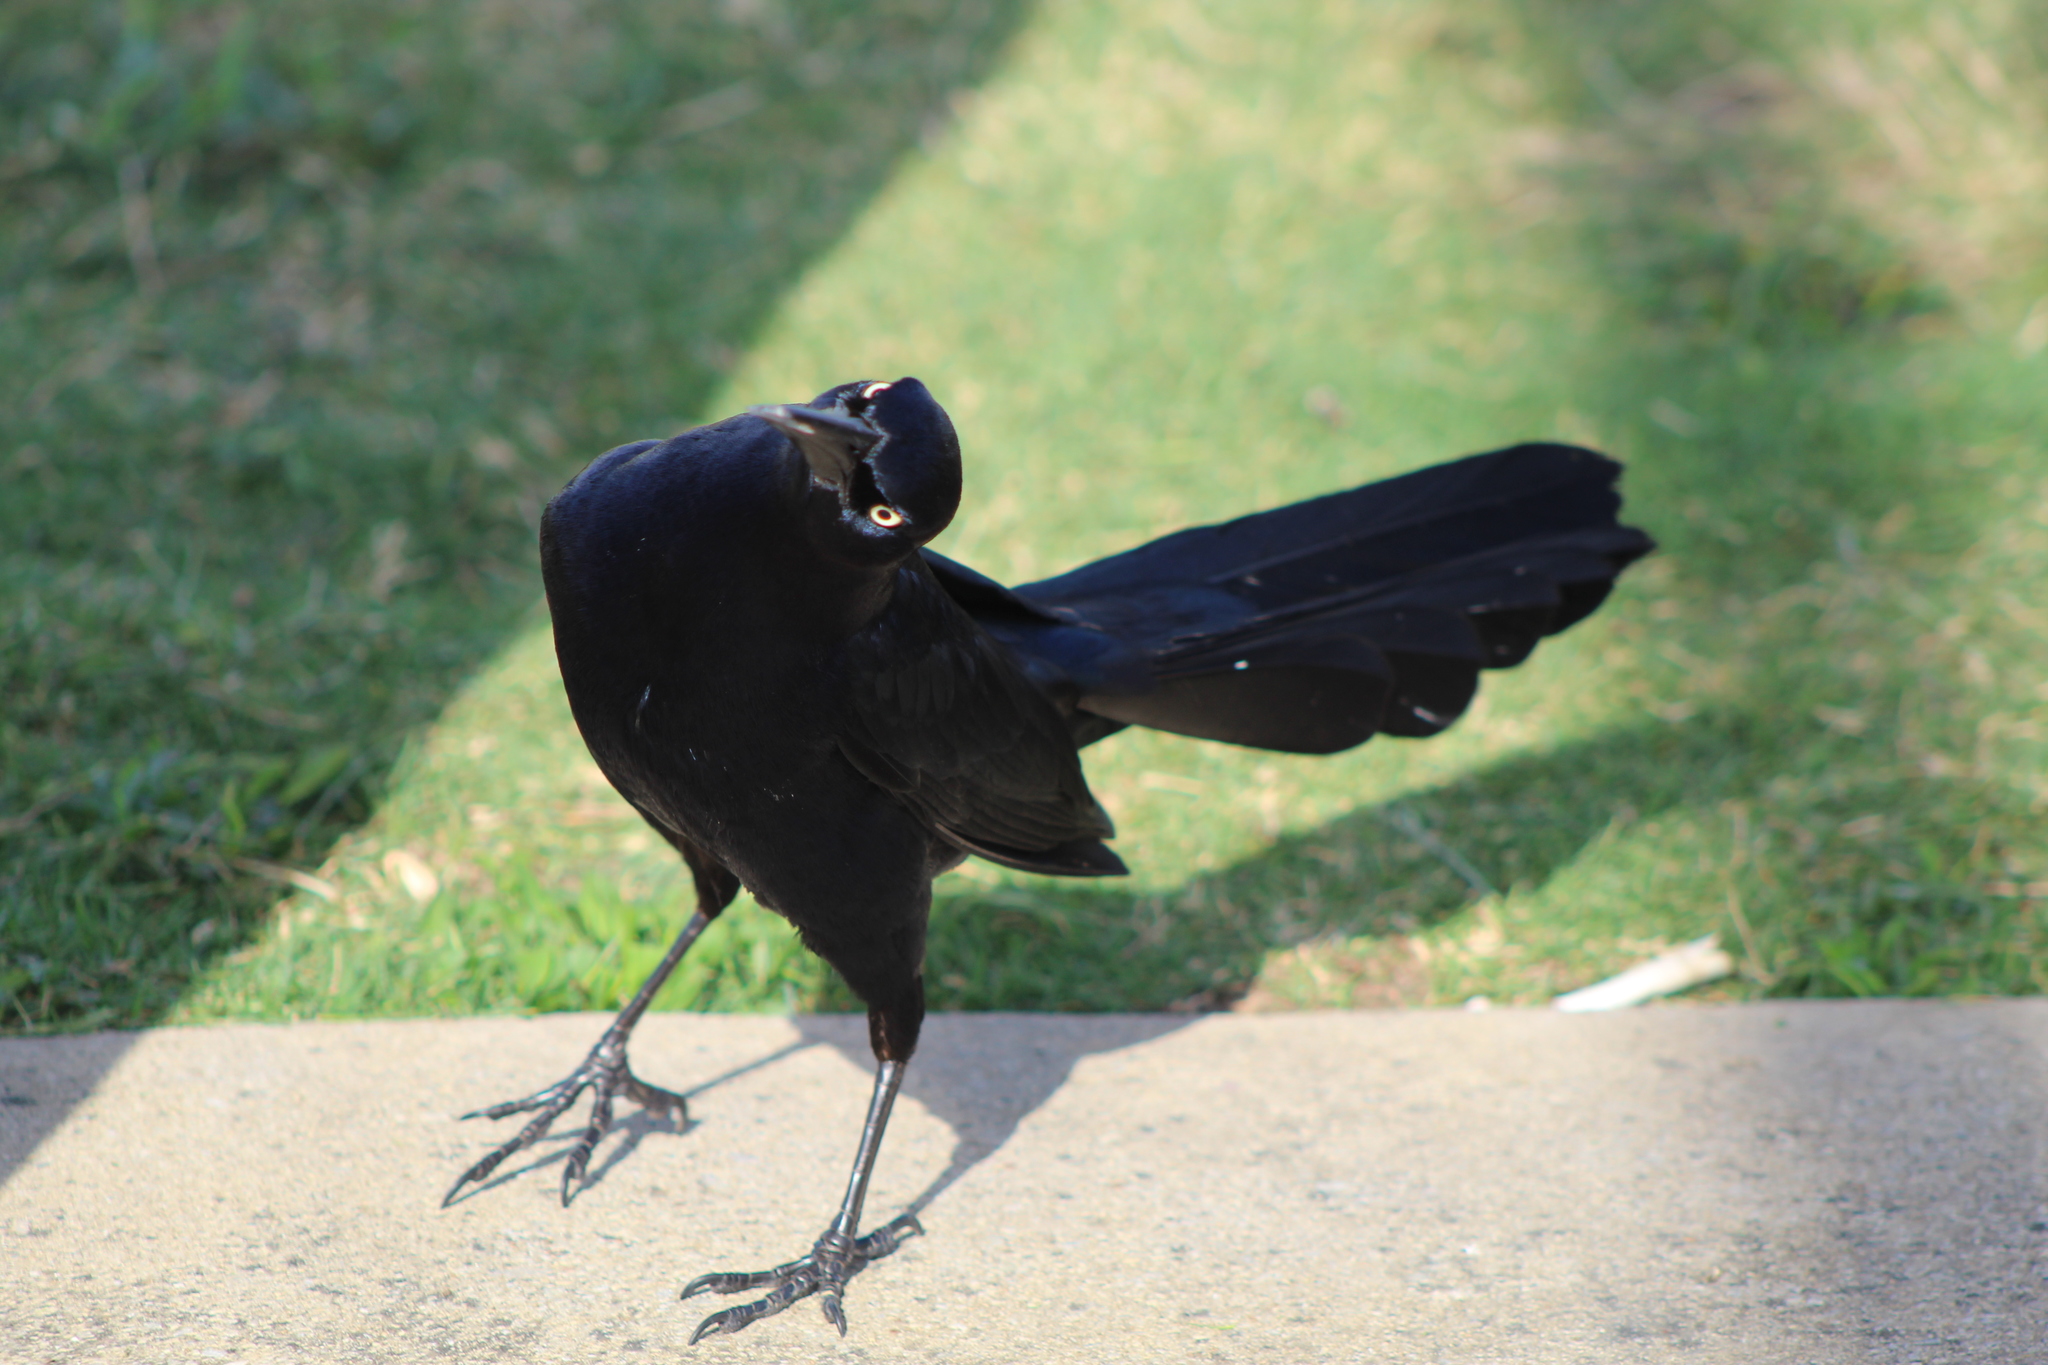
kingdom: Animalia
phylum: Chordata
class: Aves
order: Passeriformes
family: Icteridae
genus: Quiscalus
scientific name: Quiscalus mexicanus
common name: Great-tailed grackle
